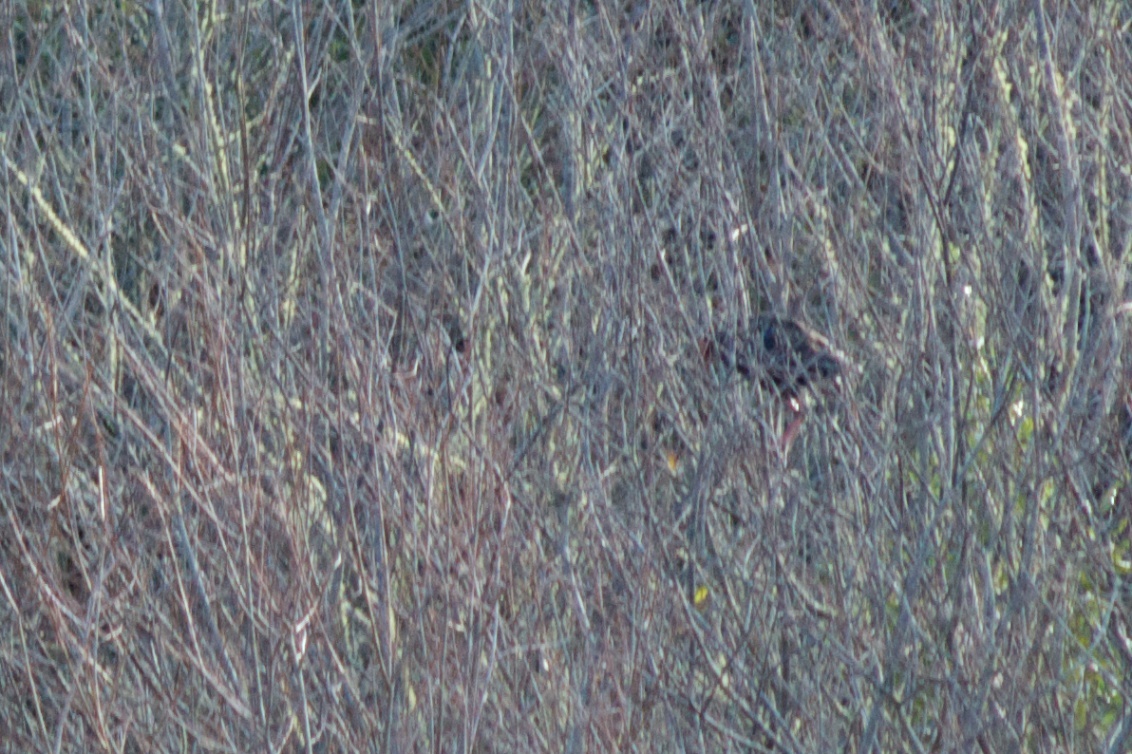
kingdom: Animalia
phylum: Chordata
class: Aves
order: Gruiformes
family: Rallidae
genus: Porphyrio
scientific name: Porphyrio melanotus
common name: Australasian swamphen
